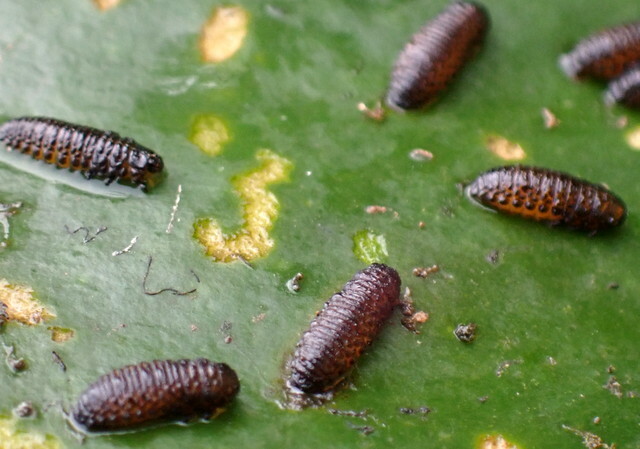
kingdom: Animalia
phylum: Arthropoda
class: Insecta
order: Coleoptera
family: Chrysomelidae
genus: Galerucella
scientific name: Galerucella nymphaeae
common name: Leaf beetle
